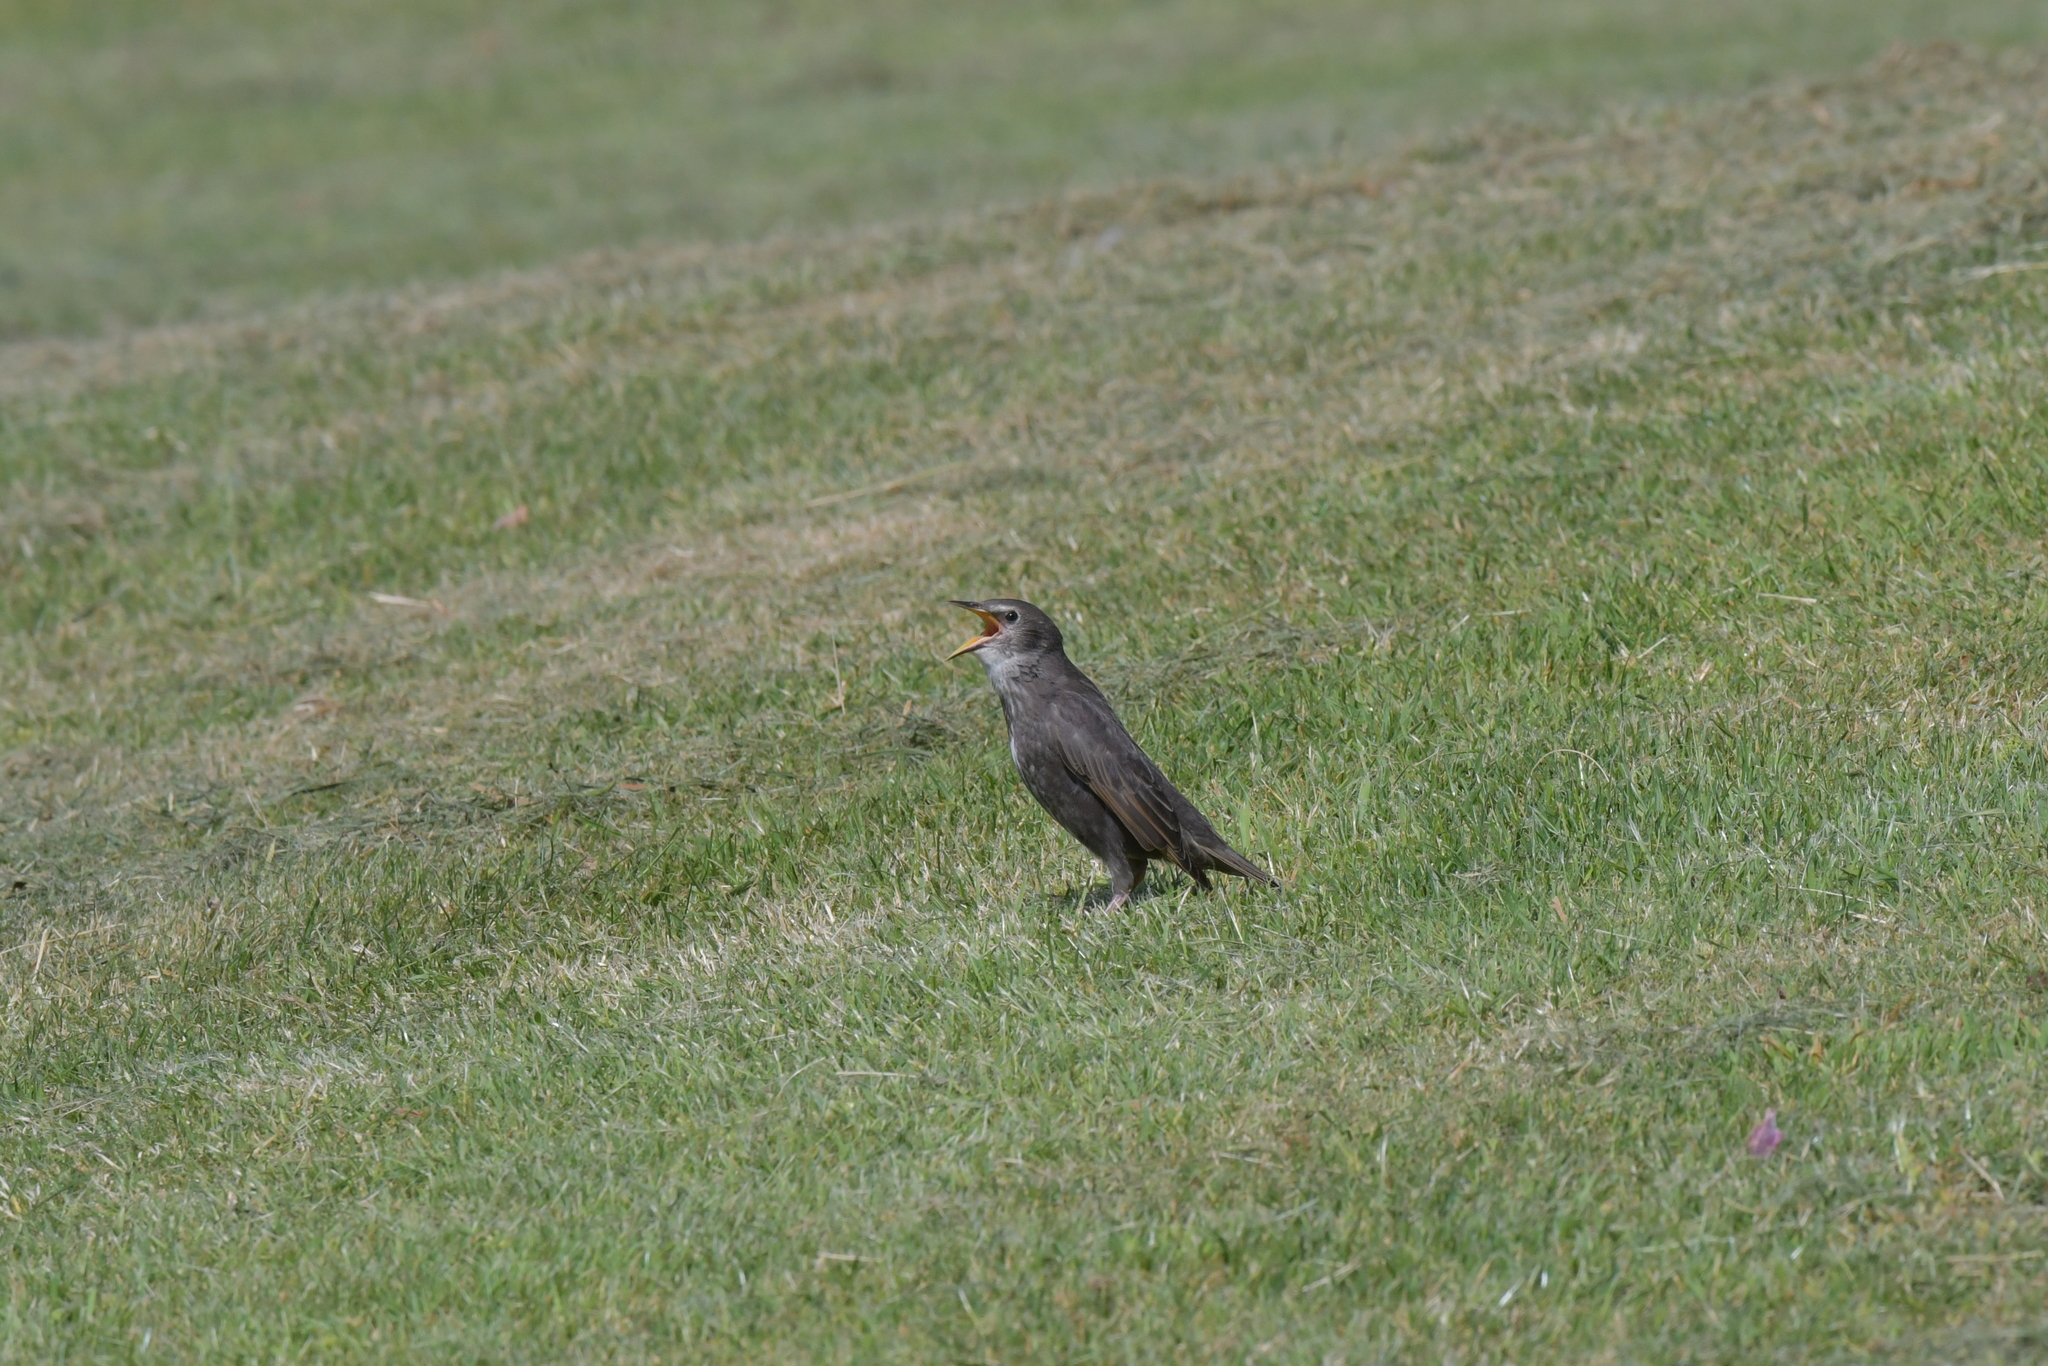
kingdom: Animalia
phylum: Chordata
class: Aves
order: Passeriformes
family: Sturnidae
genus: Sturnus
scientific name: Sturnus vulgaris
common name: Common starling
